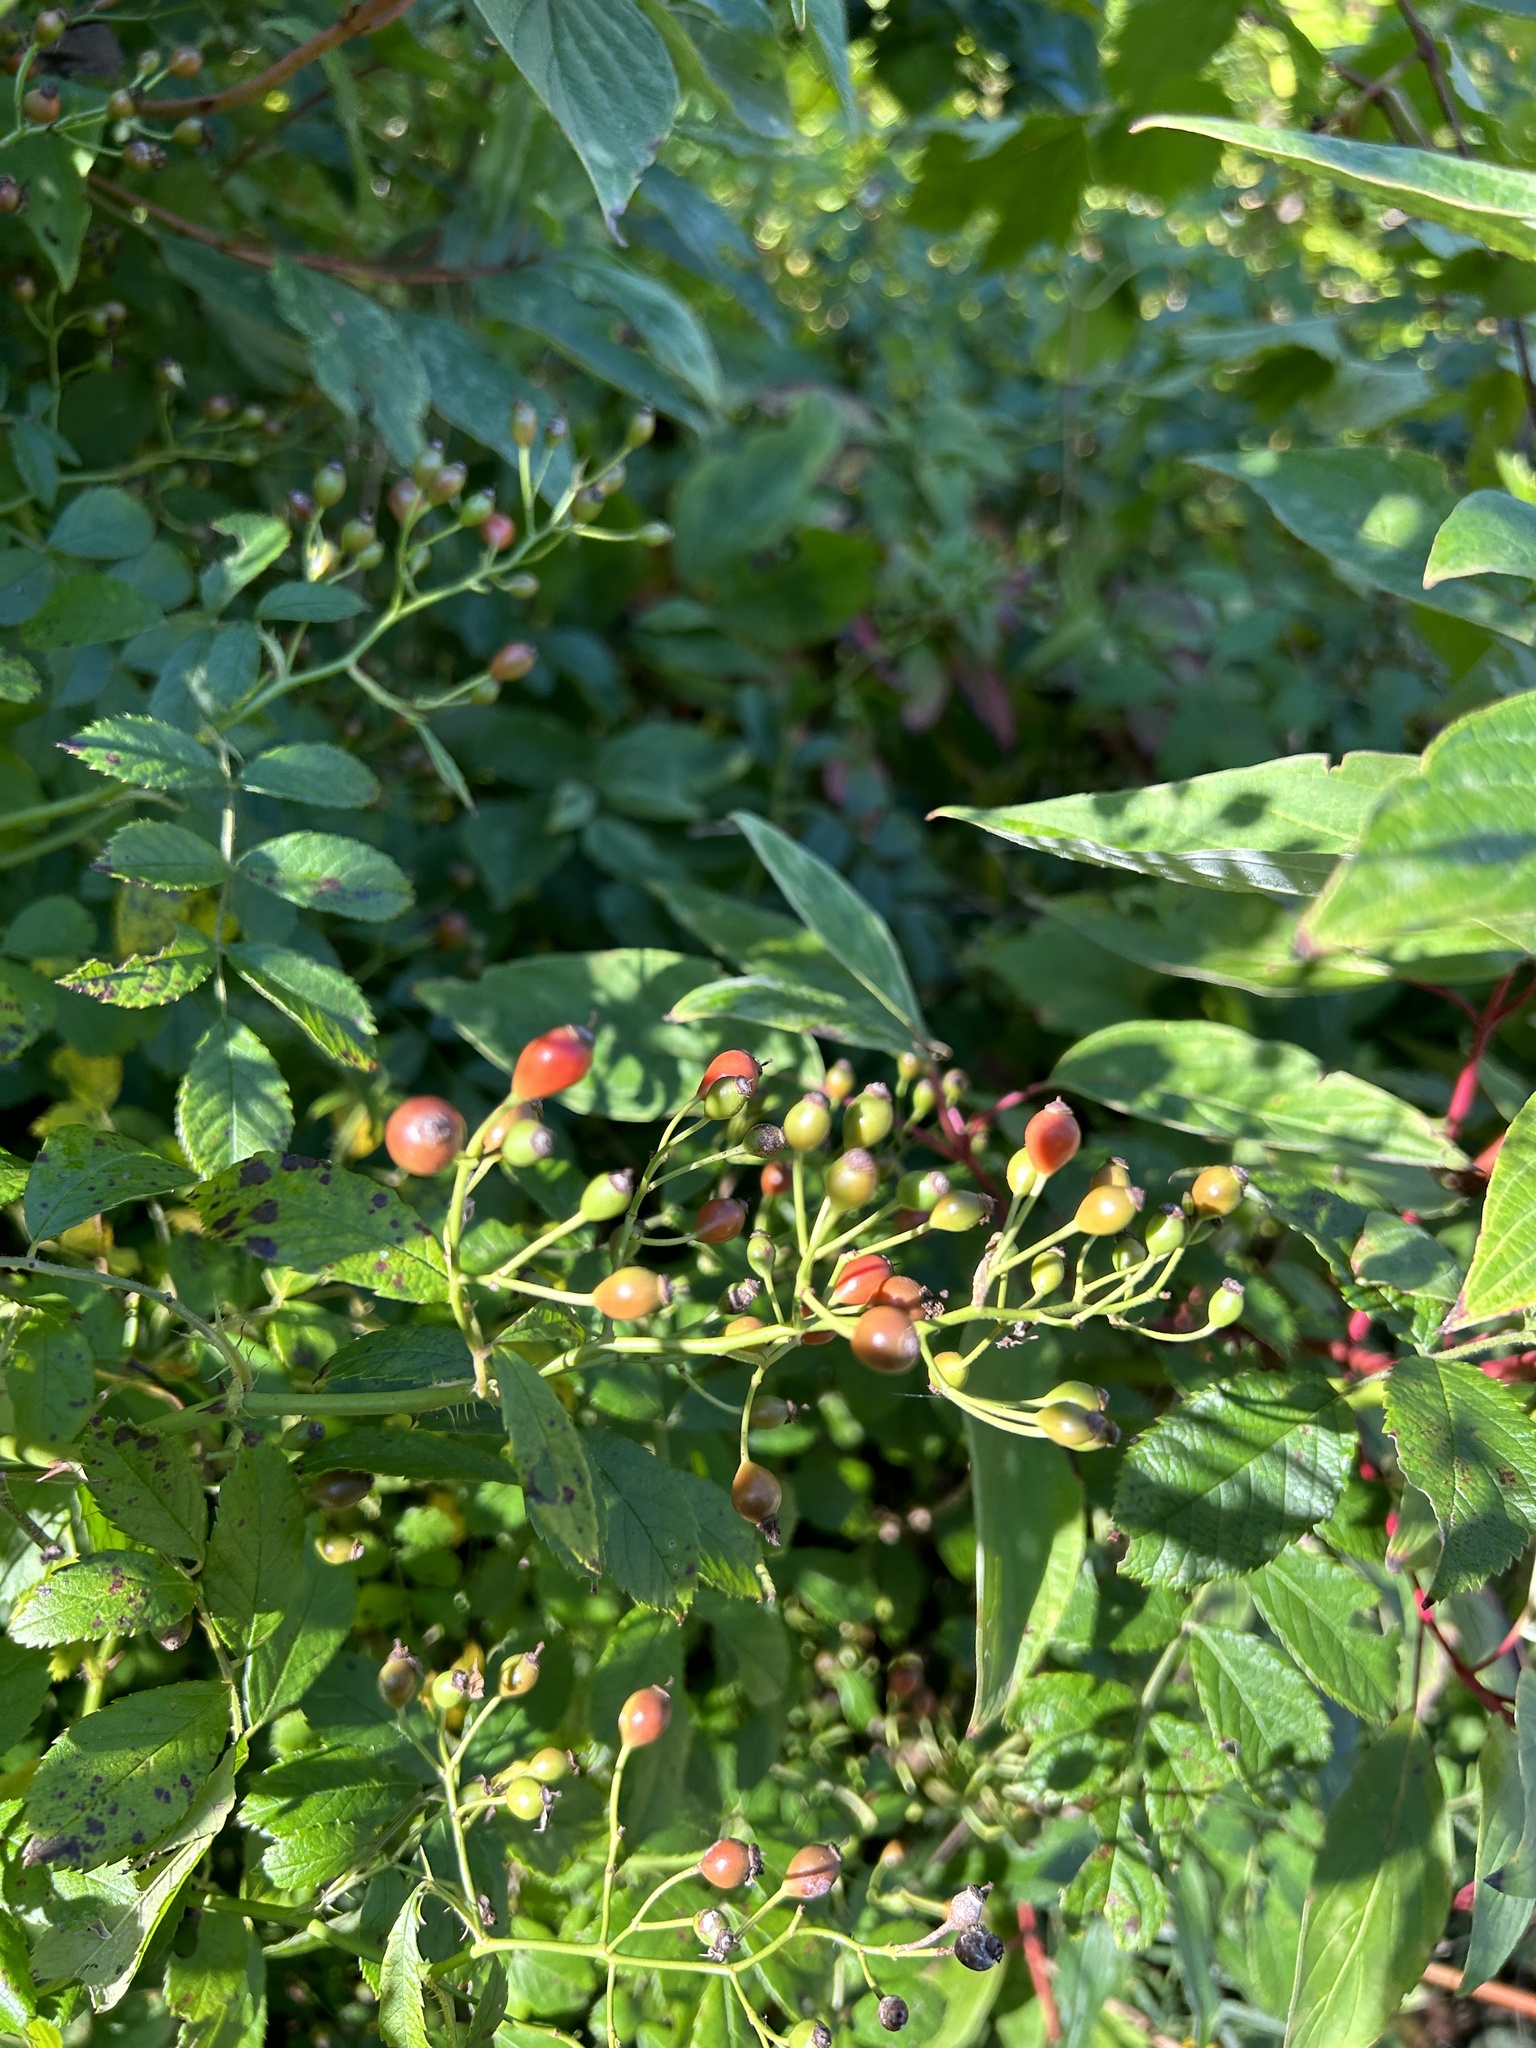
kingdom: Plantae
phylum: Tracheophyta
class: Magnoliopsida
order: Rosales
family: Rosaceae
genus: Rosa
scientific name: Rosa multiflora
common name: Multiflora rose
